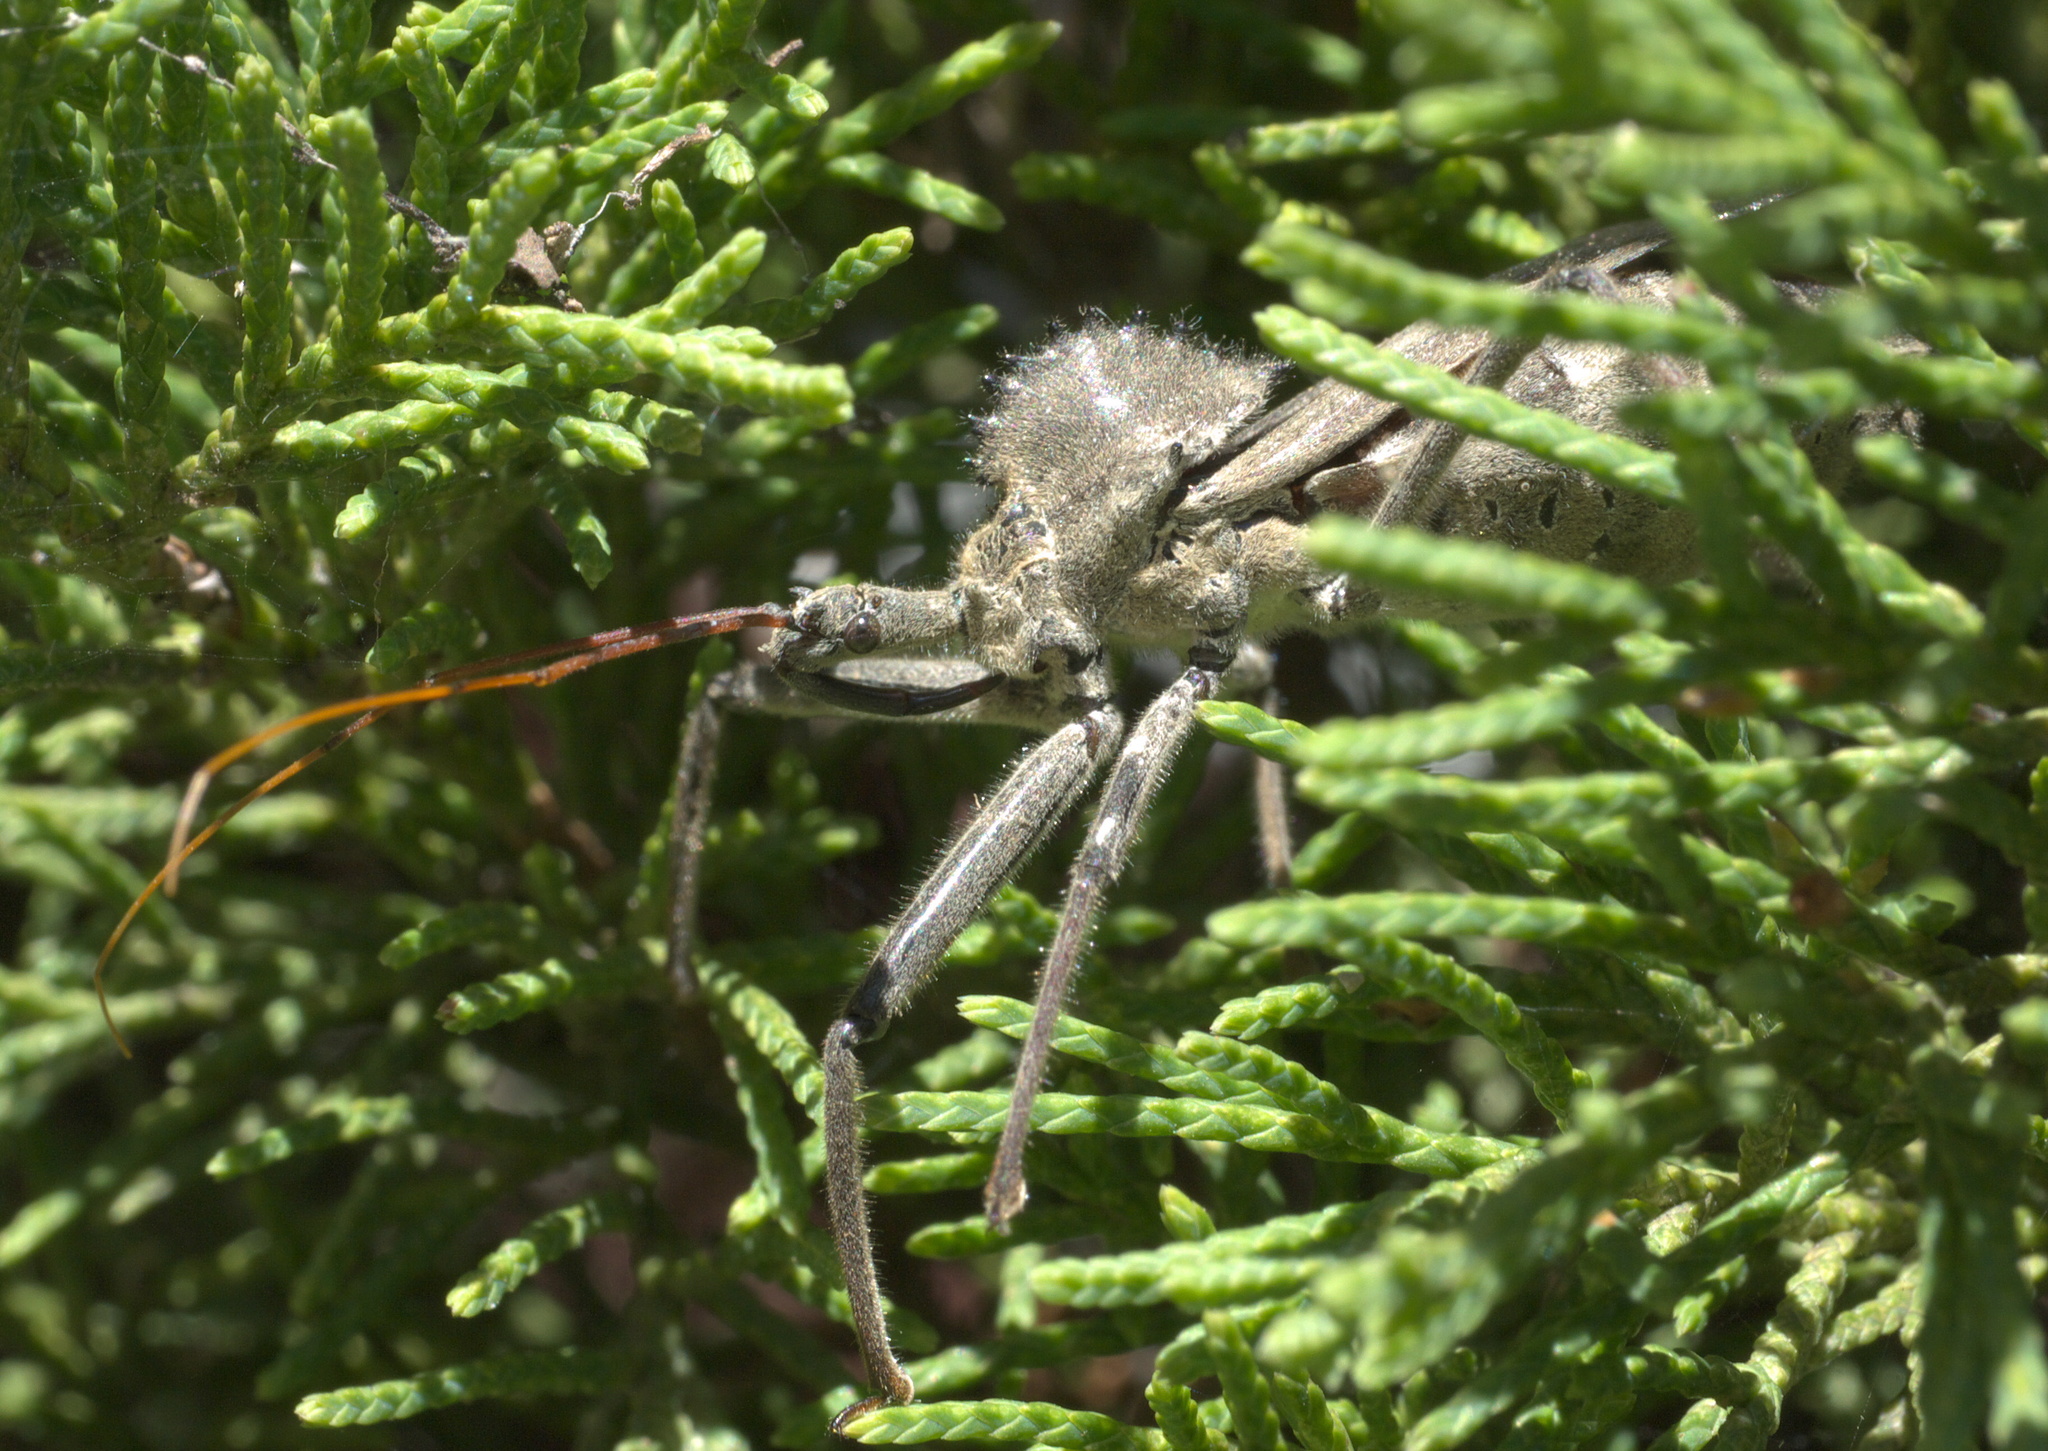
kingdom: Animalia
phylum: Arthropoda
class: Insecta
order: Hemiptera
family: Reduviidae
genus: Arilus
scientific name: Arilus cristatus
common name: North american wheel bug
